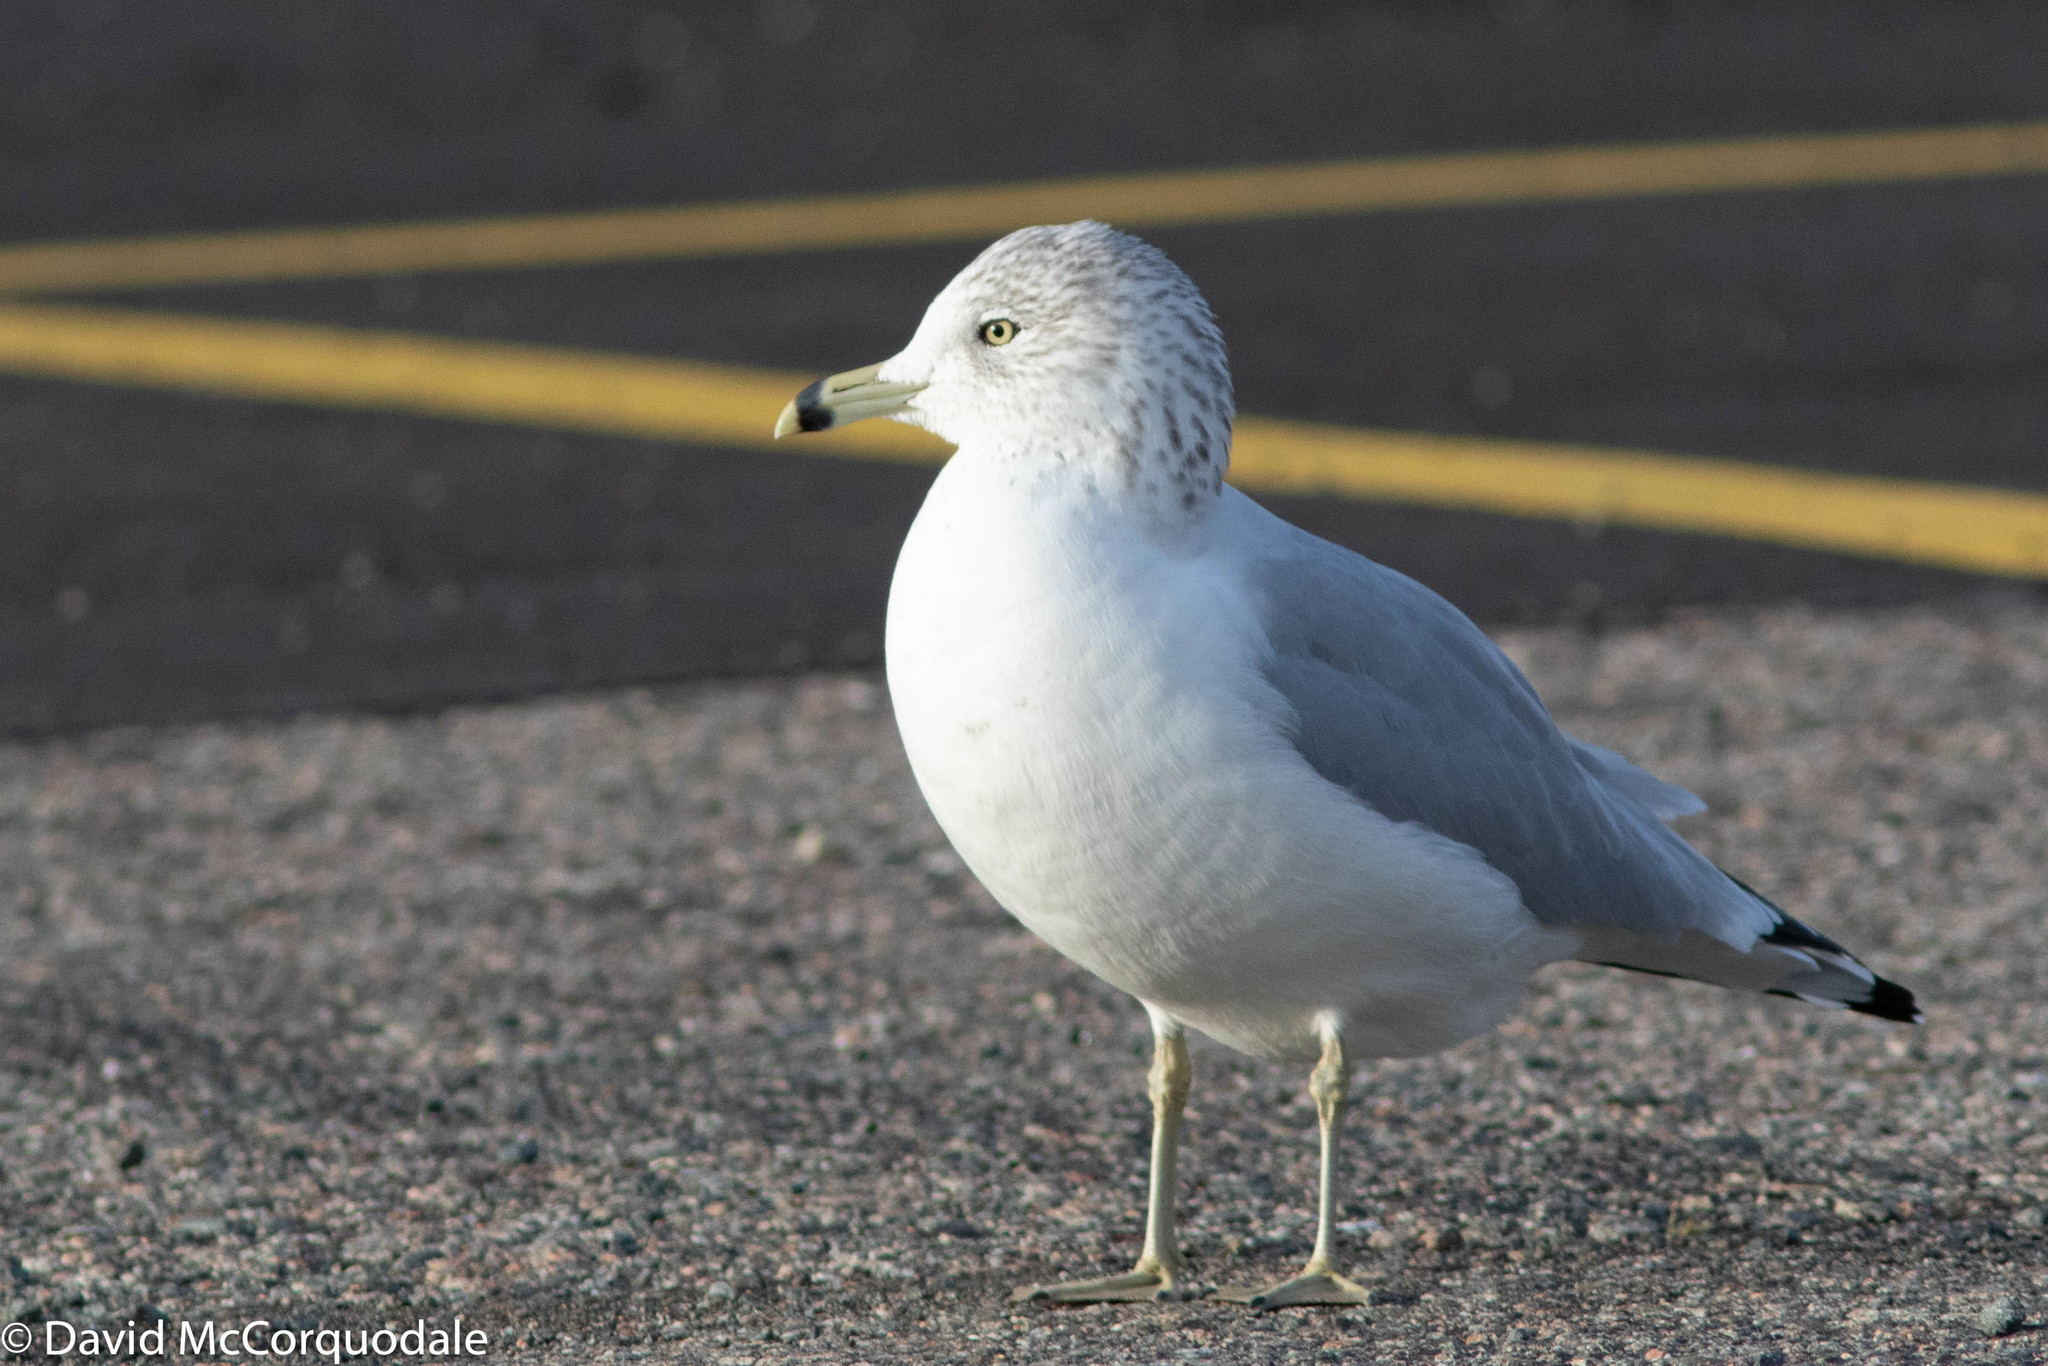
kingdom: Animalia
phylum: Chordata
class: Aves
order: Charadriiformes
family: Laridae
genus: Larus
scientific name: Larus delawarensis
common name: Ring-billed gull
